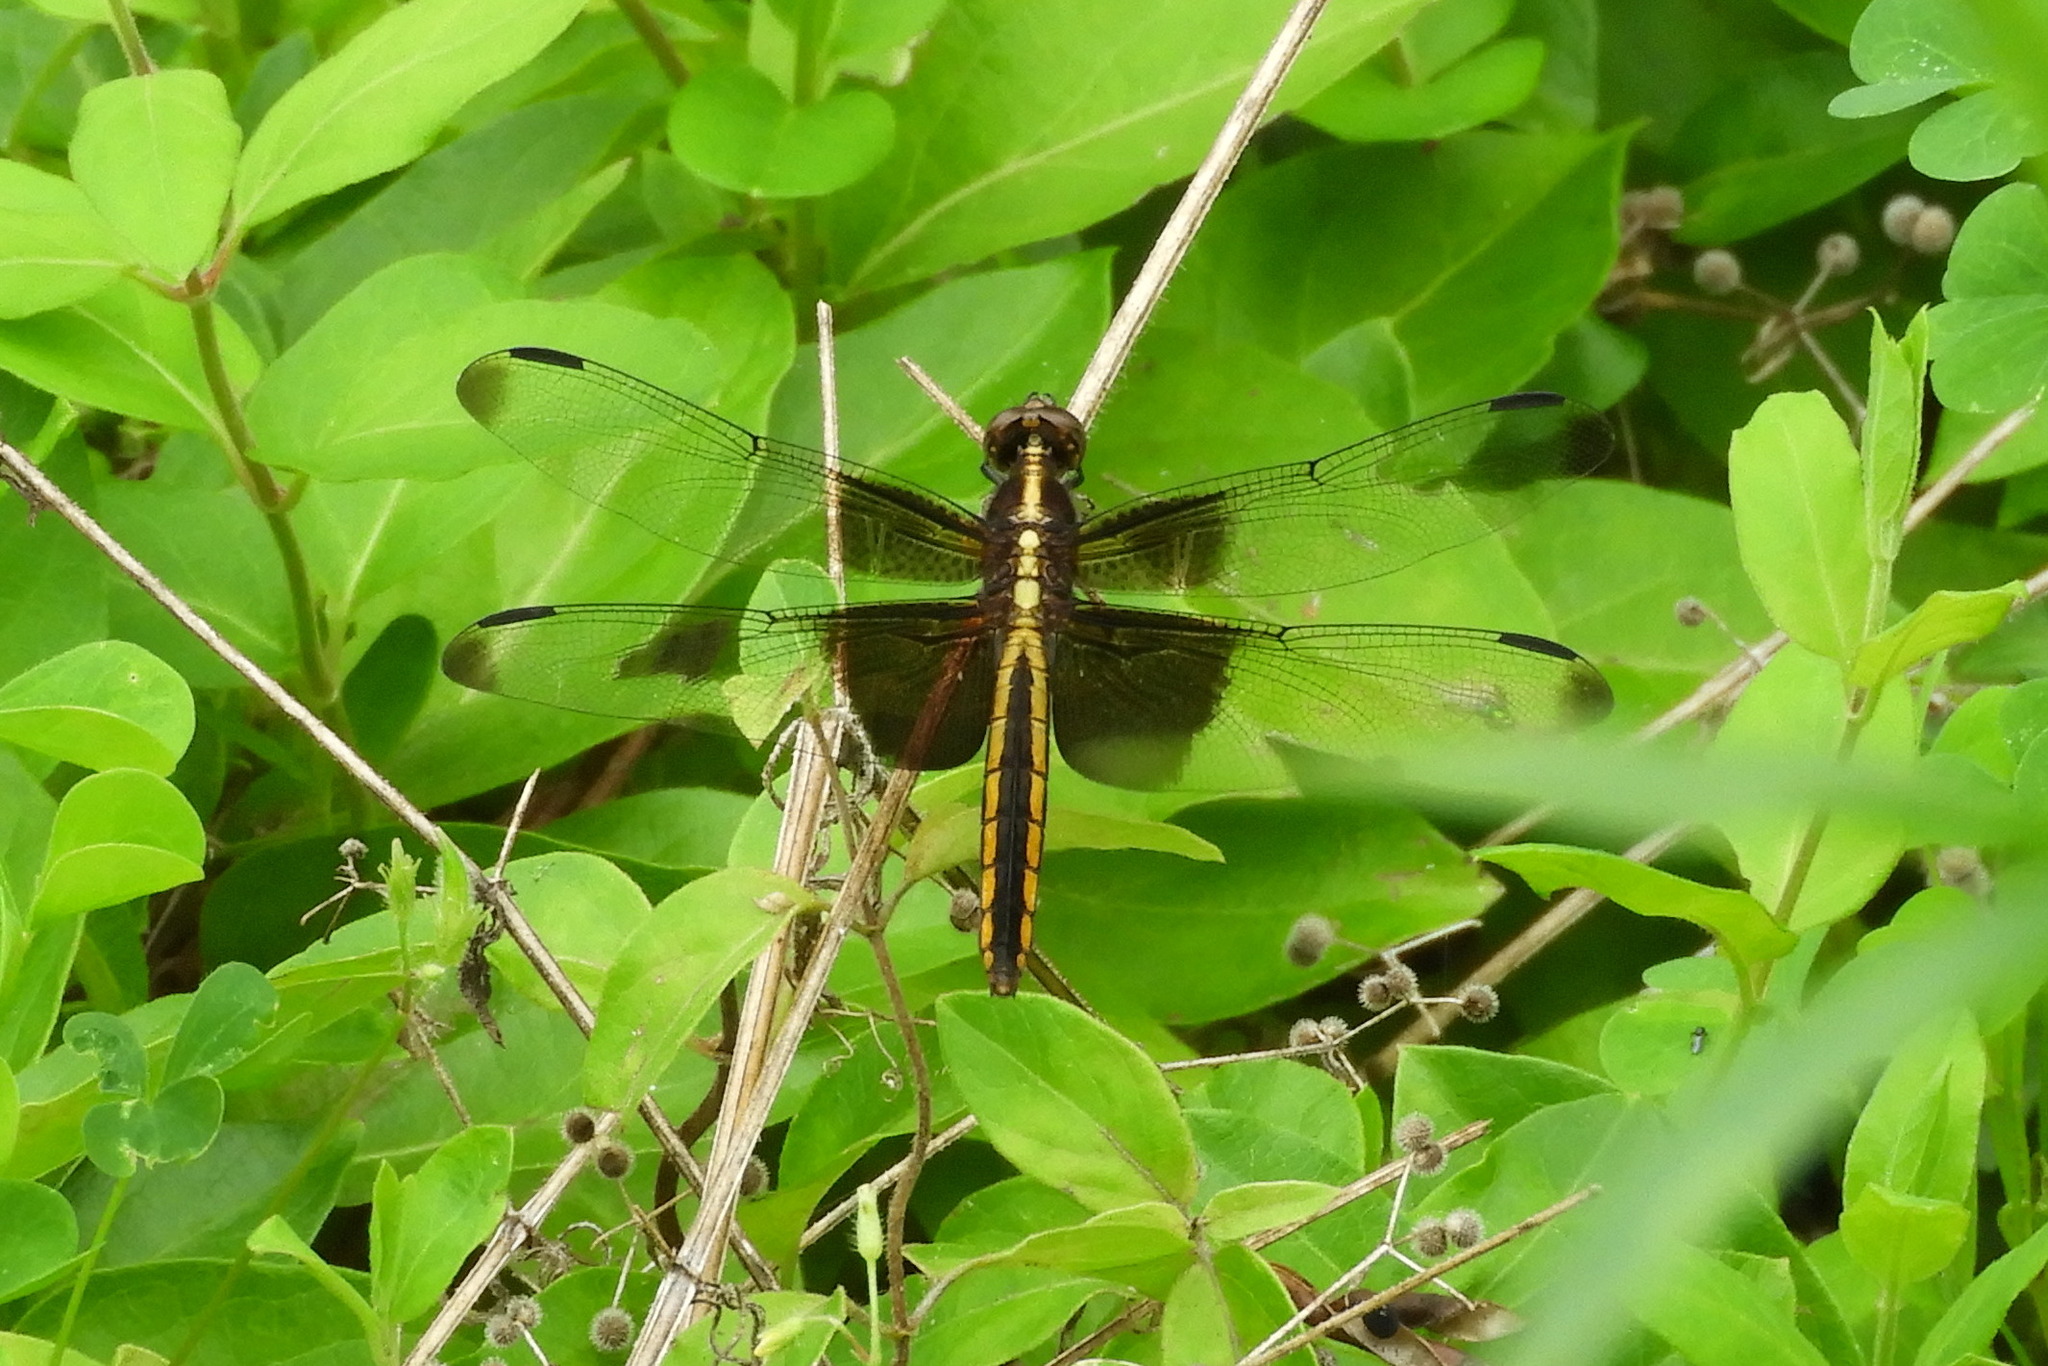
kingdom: Animalia
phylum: Arthropoda
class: Insecta
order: Odonata
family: Libellulidae
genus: Libellula
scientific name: Libellula luctuosa
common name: Widow skimmer
